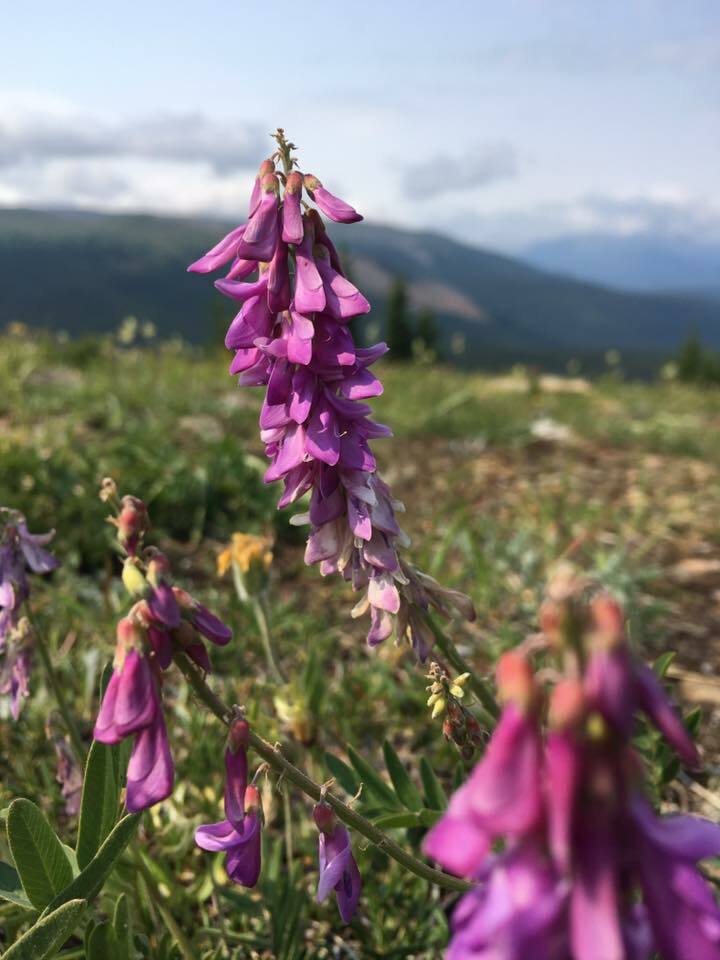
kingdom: Plantae
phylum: Tracheophyta
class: Magnoliopsida
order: Fabales
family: Fabaceae
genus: Hedysarum
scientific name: Hedysarum alpinum
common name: Alpine sweet-vetch
